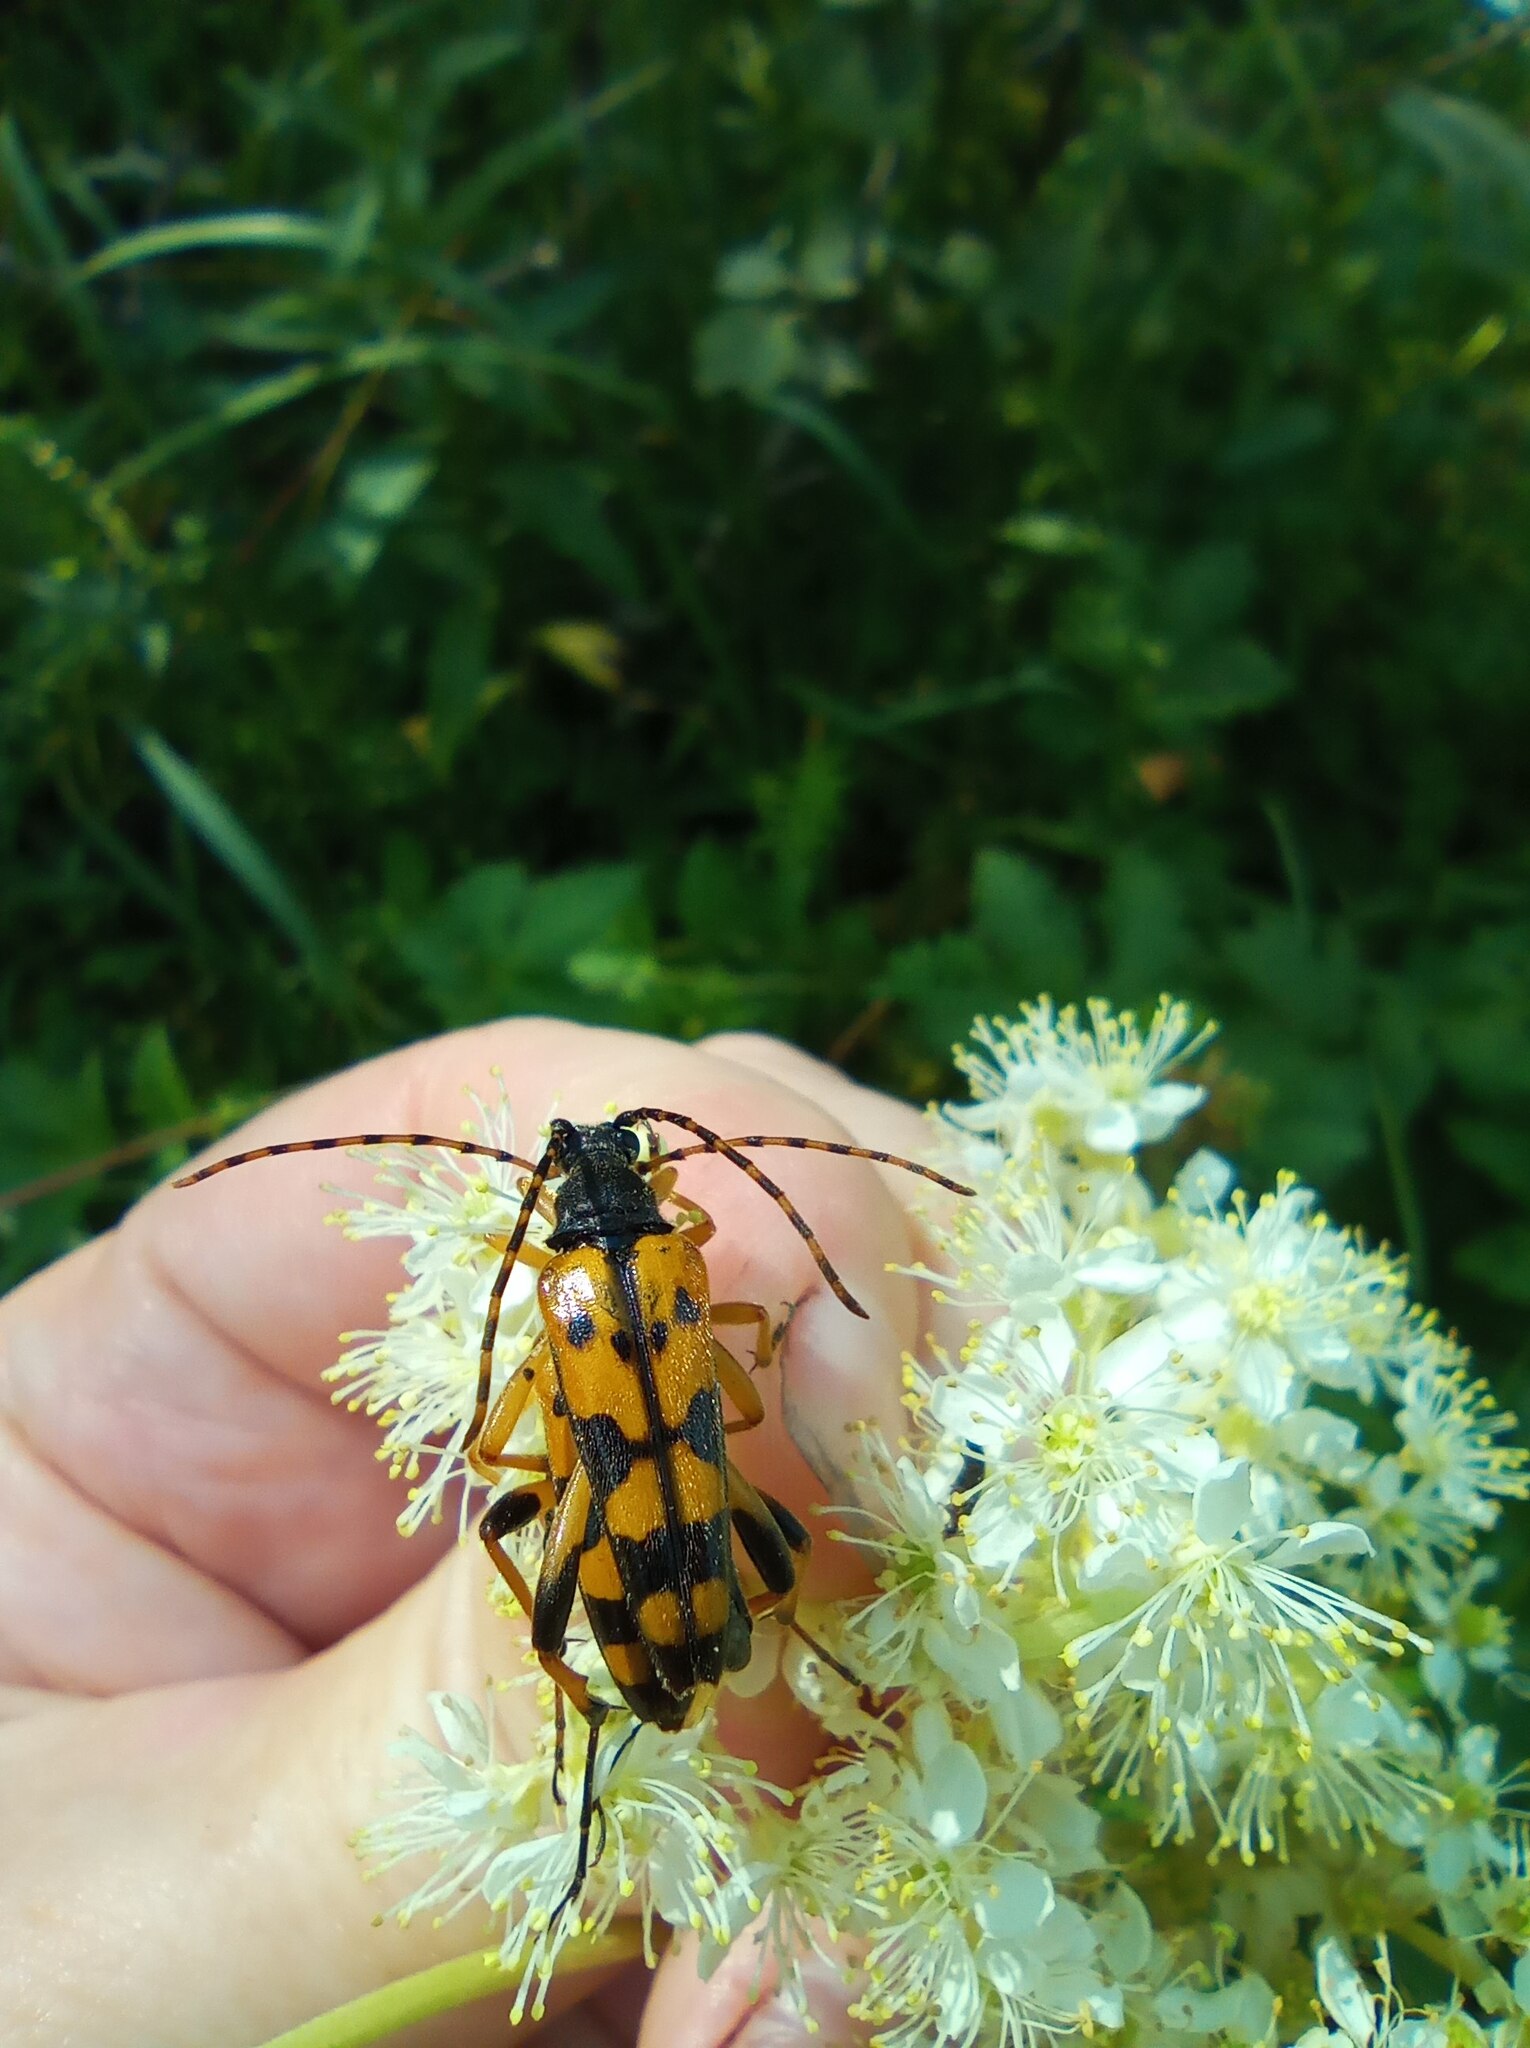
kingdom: Animalia
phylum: Arthropoda
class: Insecta
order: Coleoptera
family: Cerambycidae
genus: Rutpela
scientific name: Rutpela maculata
